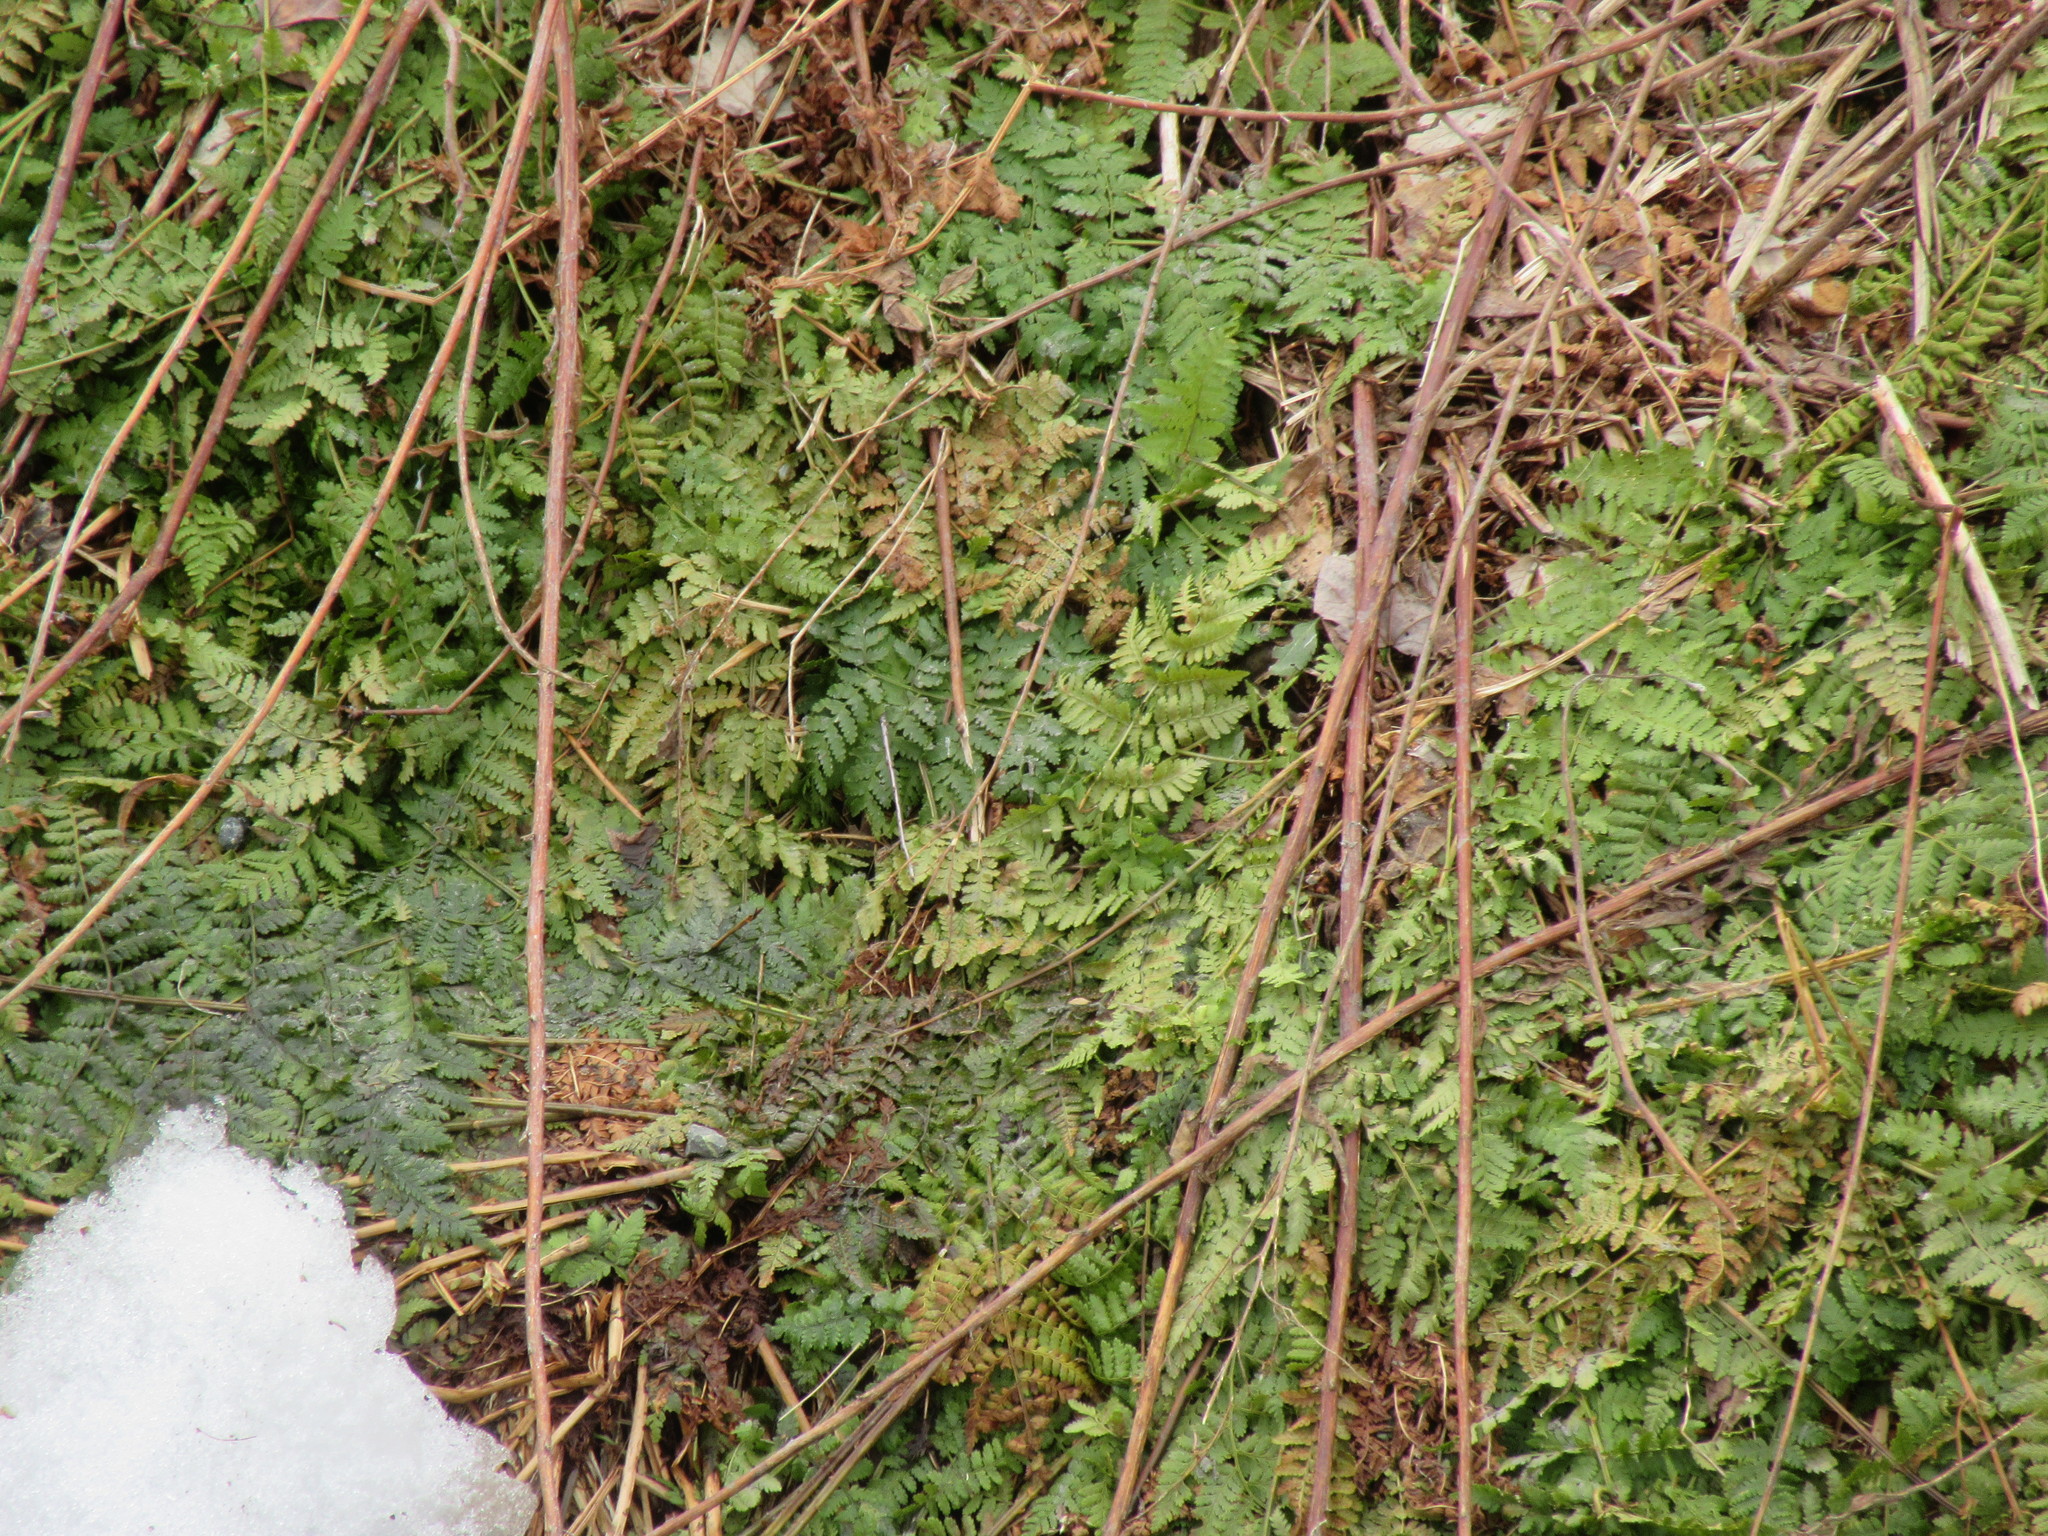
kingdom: Plantae
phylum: Tracheophyta
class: Polypodiopsida
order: Polypodiales
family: Dryopteridaceae
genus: Dryopteris
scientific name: Dryopteris intermedia
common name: Evergreen wood fern
